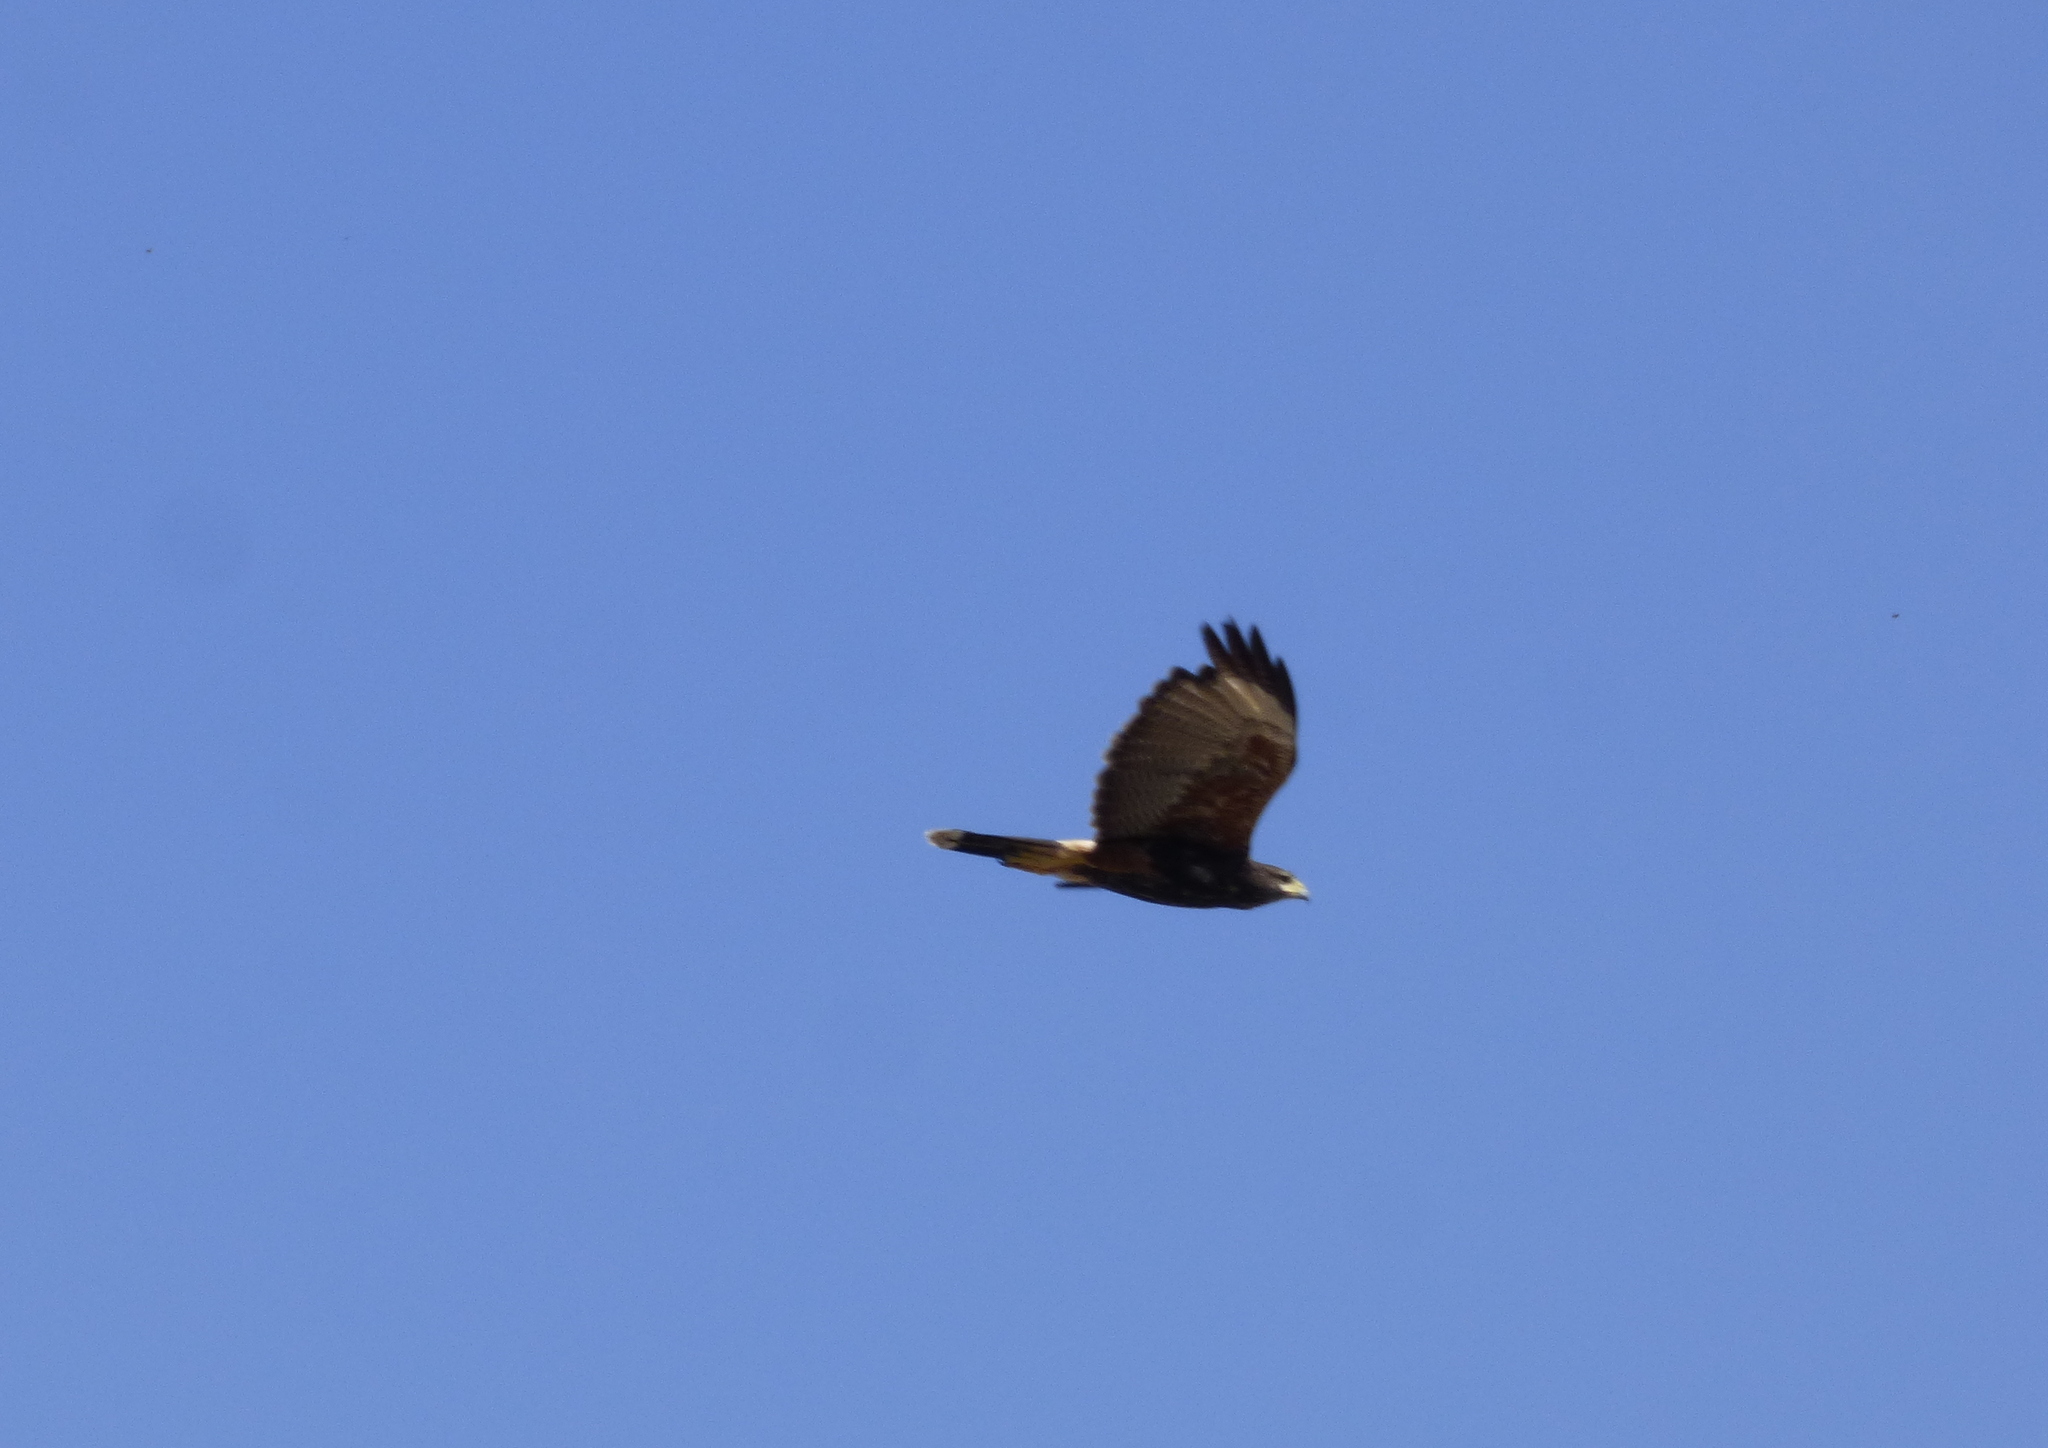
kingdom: Animalia
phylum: Chordata
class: Aves
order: Accipitriformes
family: Accipitridae
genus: Parabuteo
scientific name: Parabuteo unicinctus
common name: Harris's hawk
